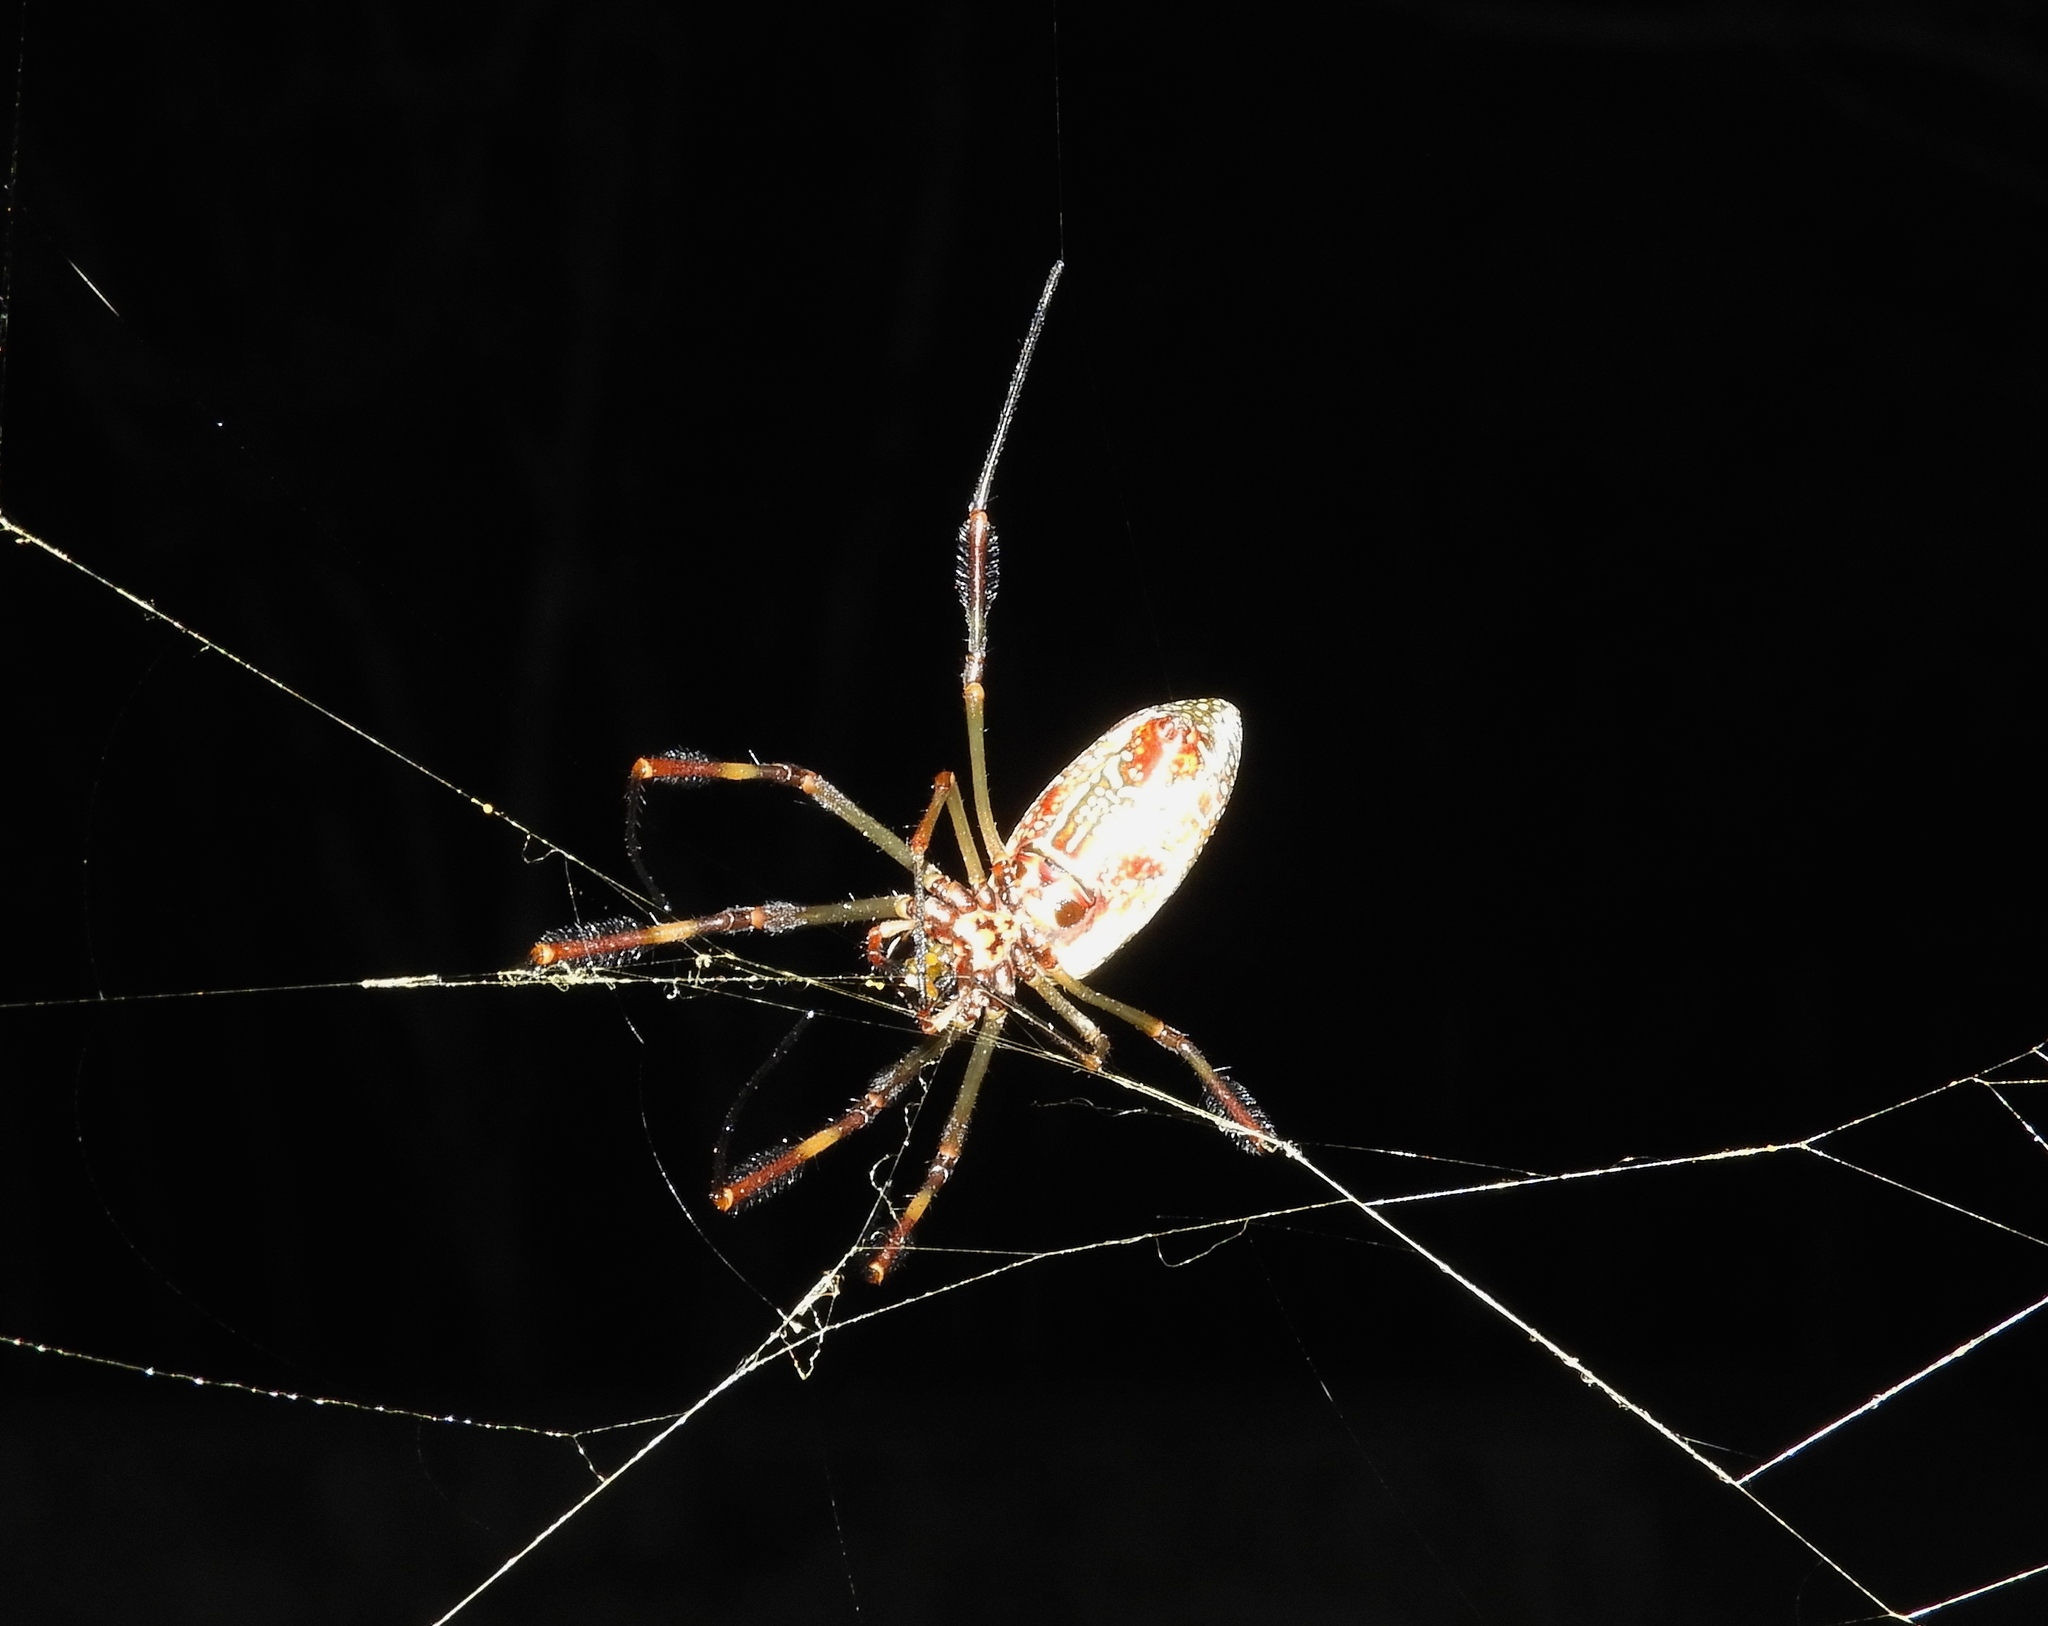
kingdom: Animalia
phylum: Arthropoda
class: Arachnida
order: Araneae
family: Araneidae
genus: Trichonephila
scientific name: Trichonephila clavipes
